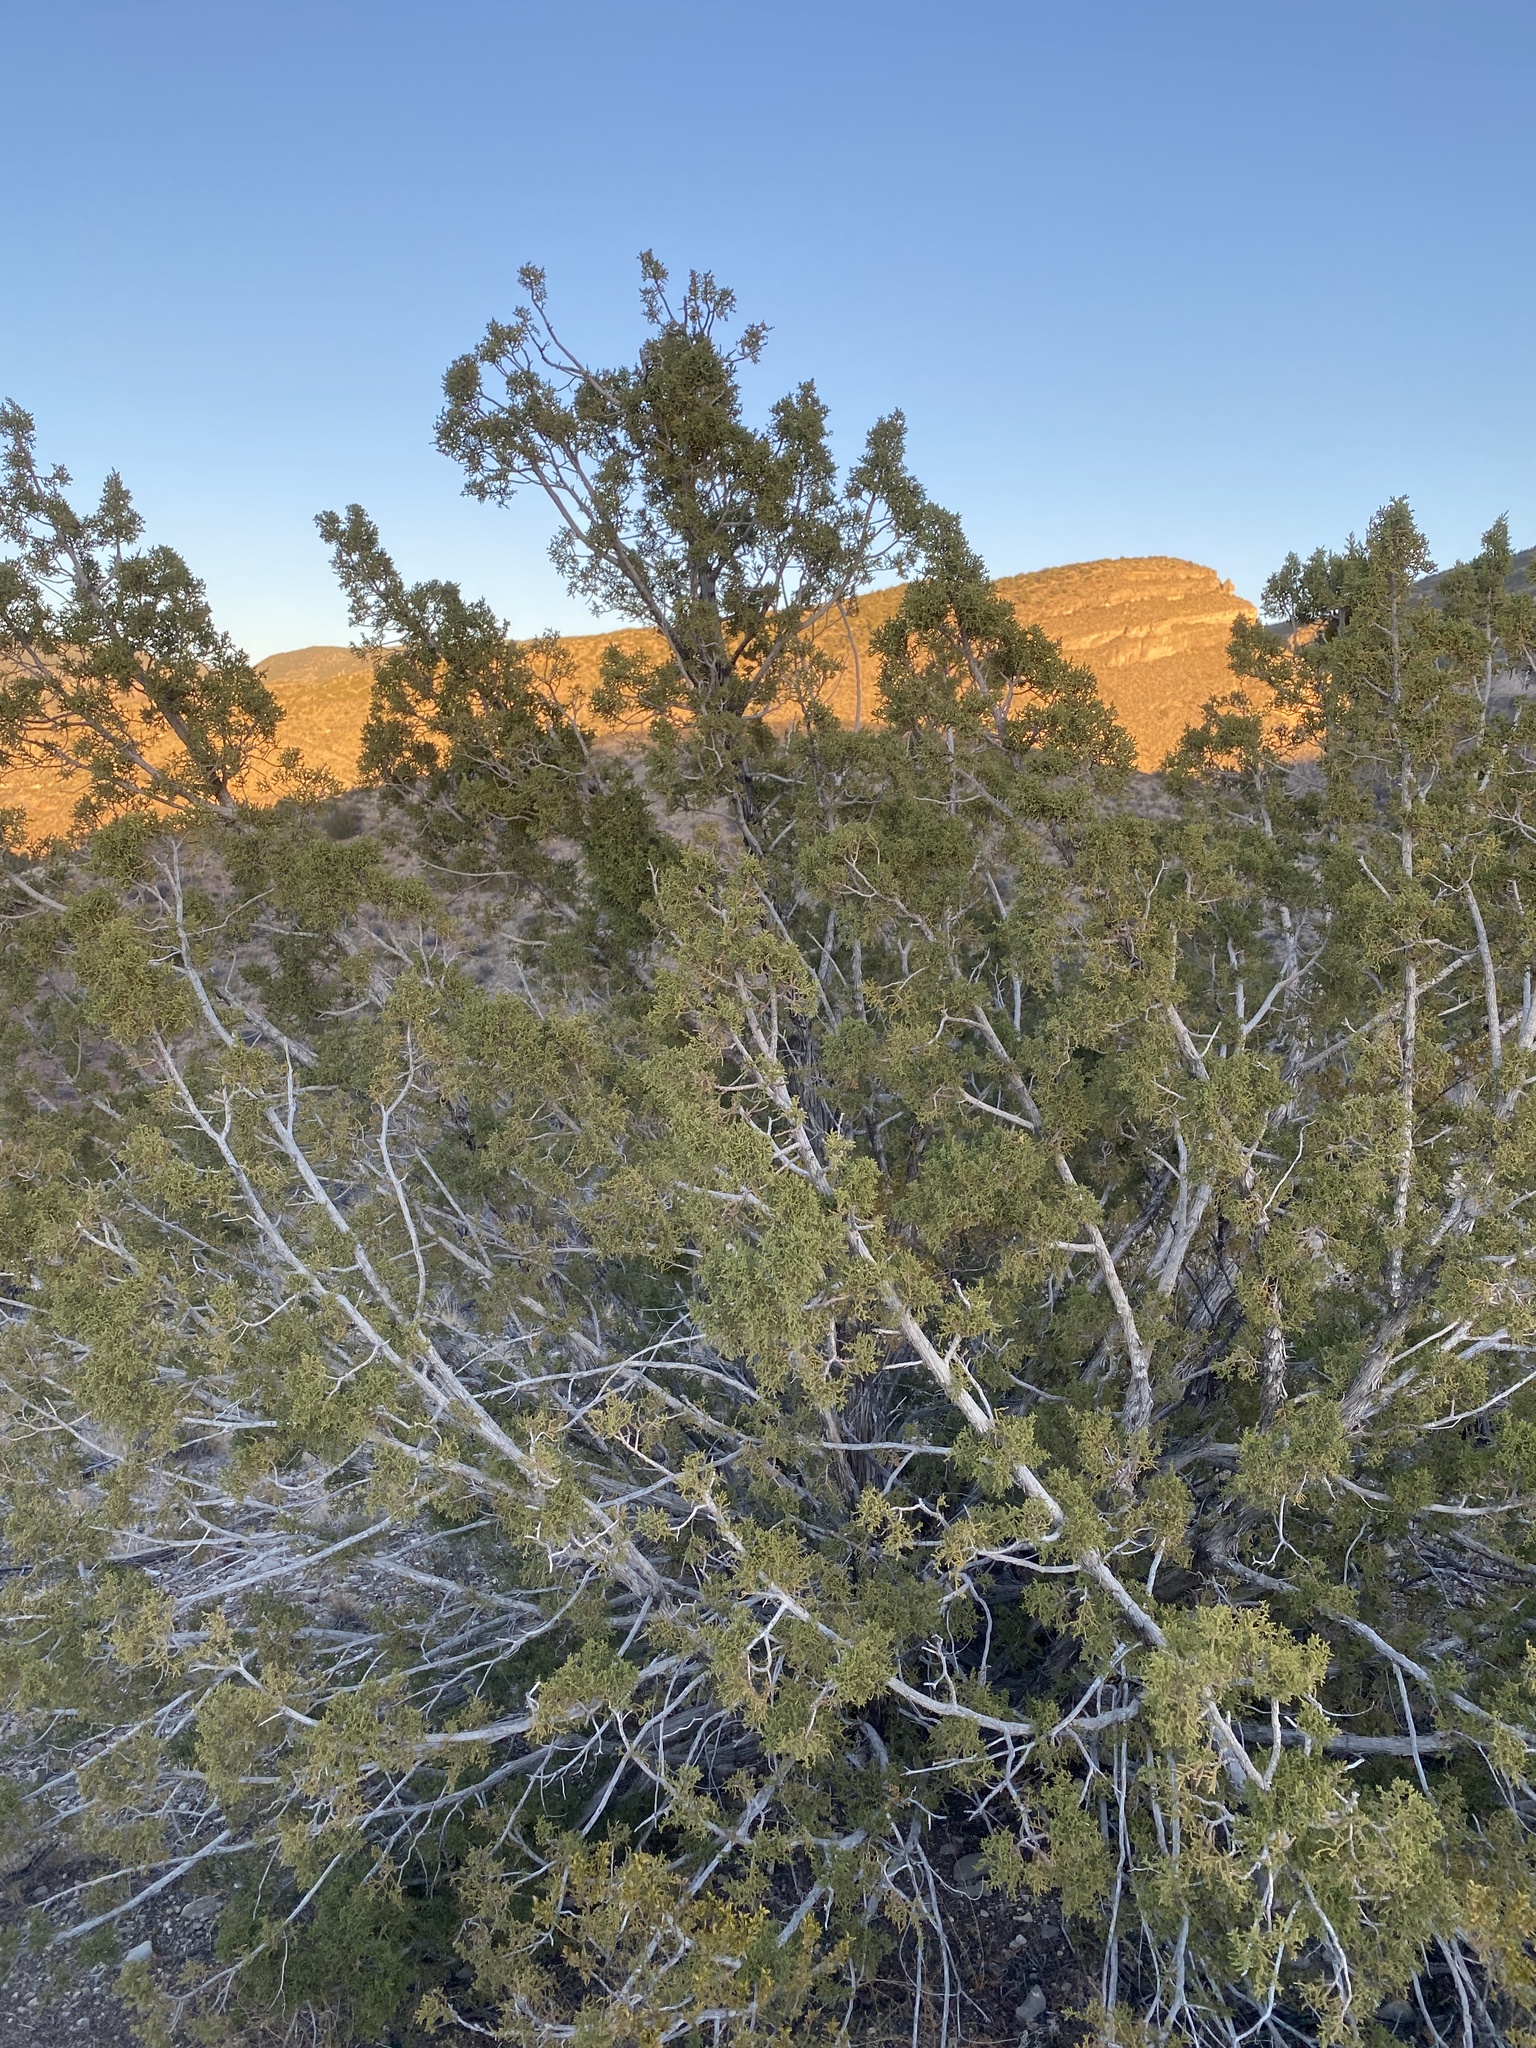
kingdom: Plantae
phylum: Tracheophyta
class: Pinopsida
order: Pinales
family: Cupressaceae
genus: Juniperus
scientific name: Juniperus monosperma
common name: One-seed juniper
